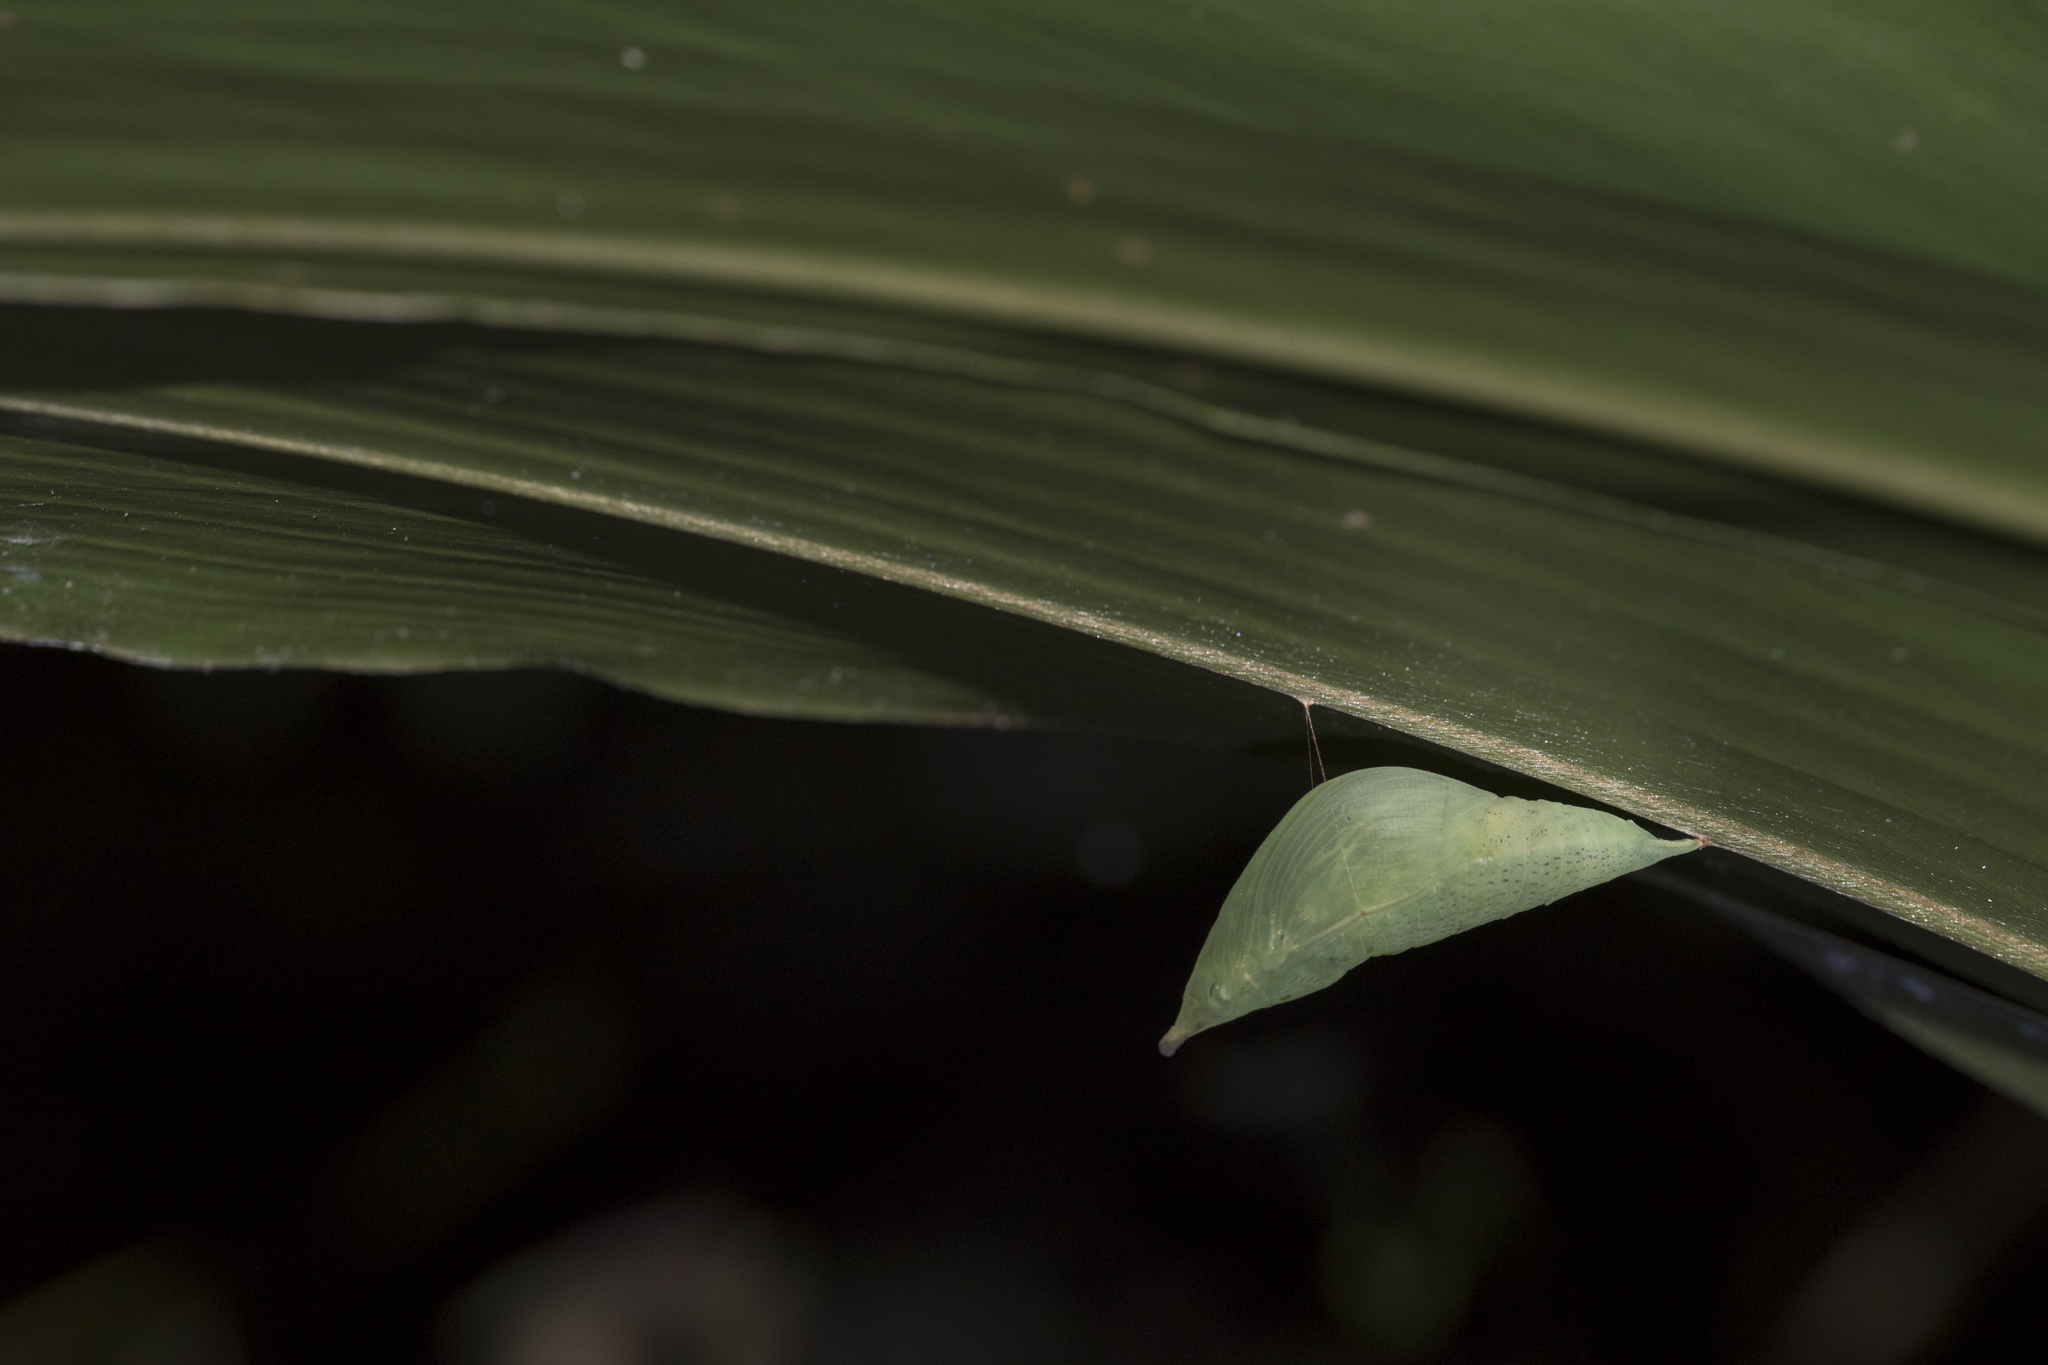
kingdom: Animalia
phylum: Arthropoda
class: Insecta
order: Lepidoptera
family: Pieridae
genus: Hebomoia
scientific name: Hebomoia glaucippe
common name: Great orange tip
